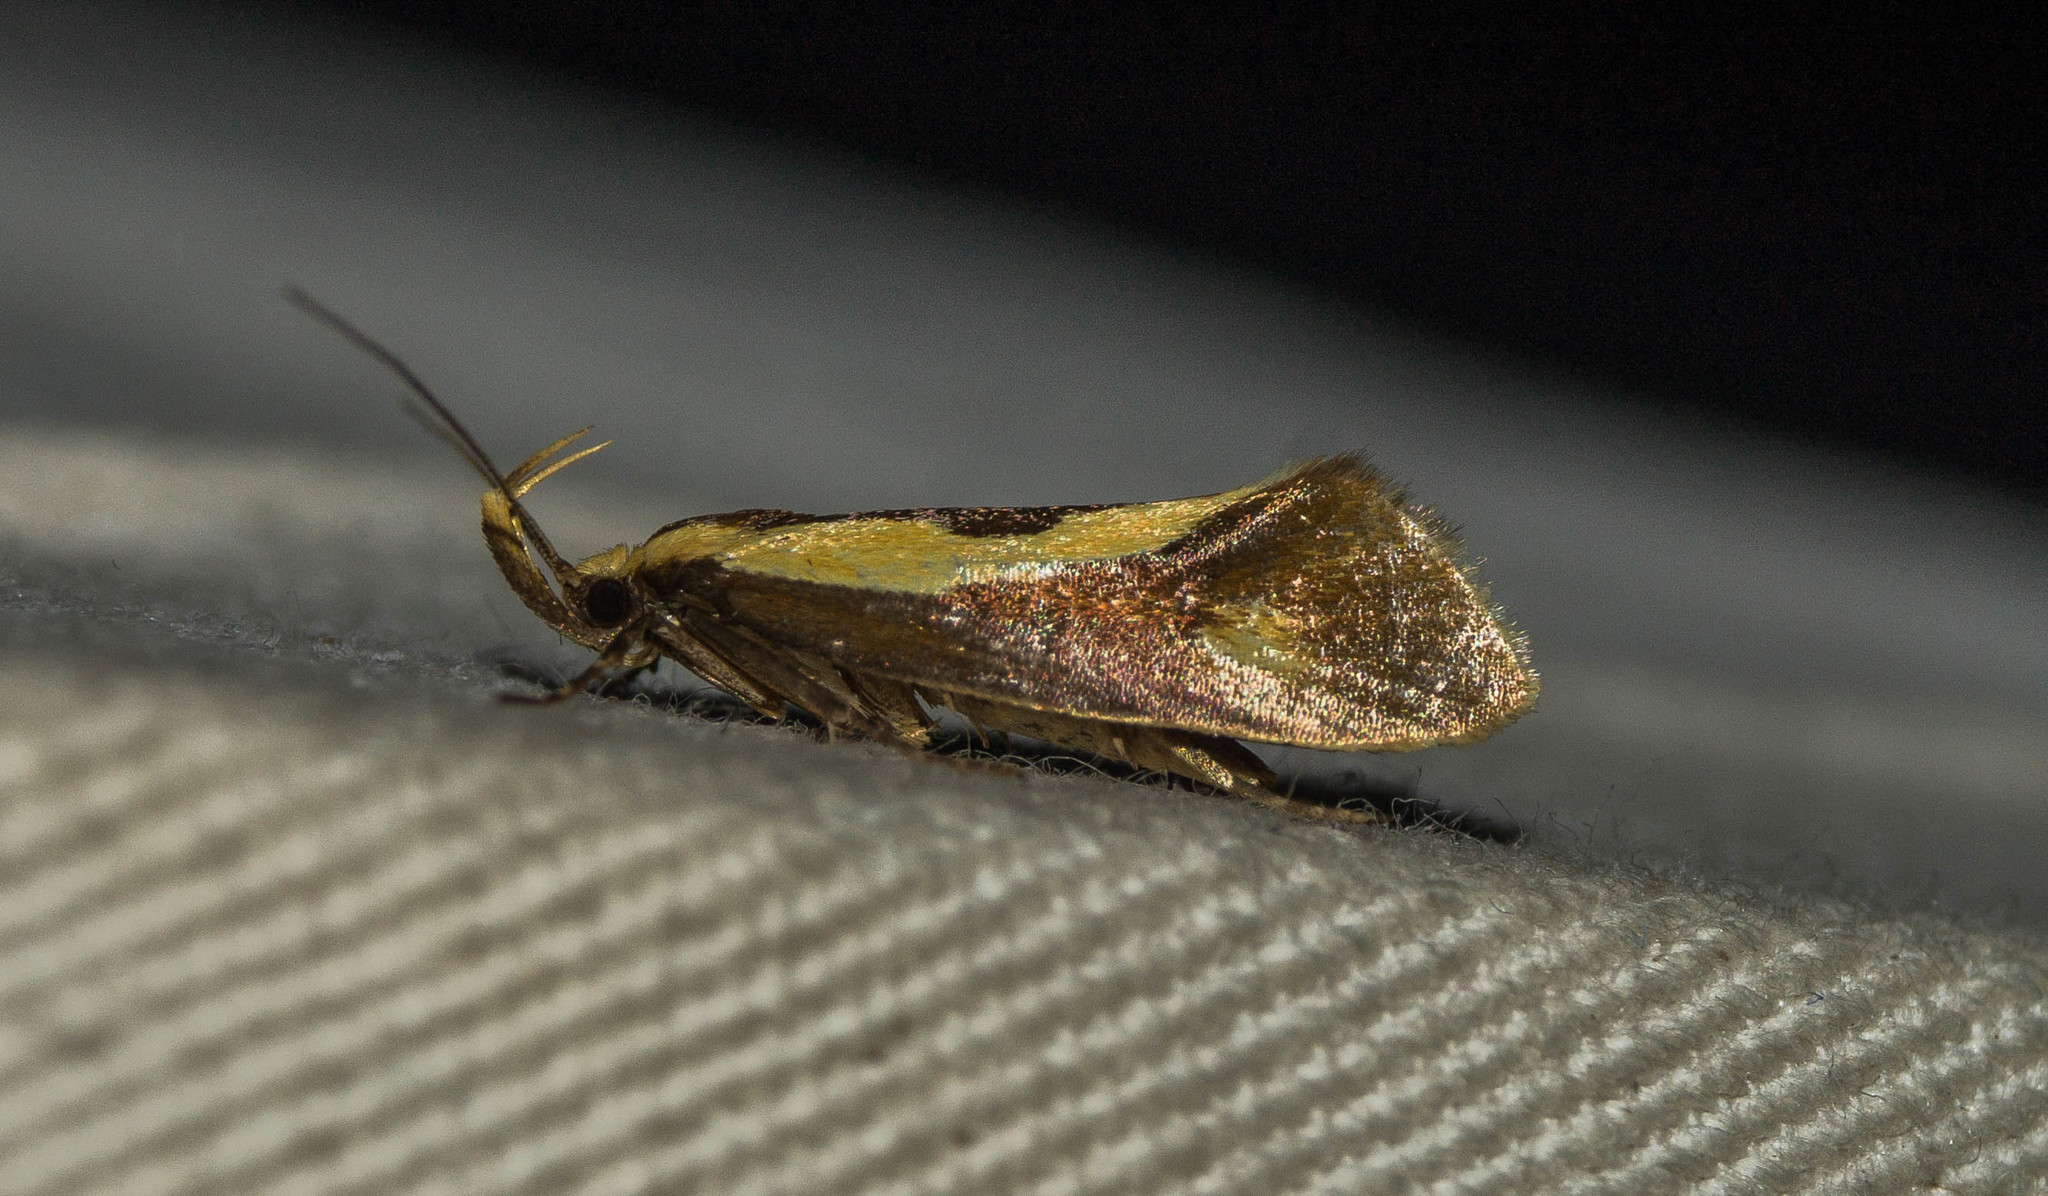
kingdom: Animalia
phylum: Arthropoda
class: Insecta
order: Lepidoptera
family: Oecophoridae
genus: Harpella
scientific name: Harpella forficella
